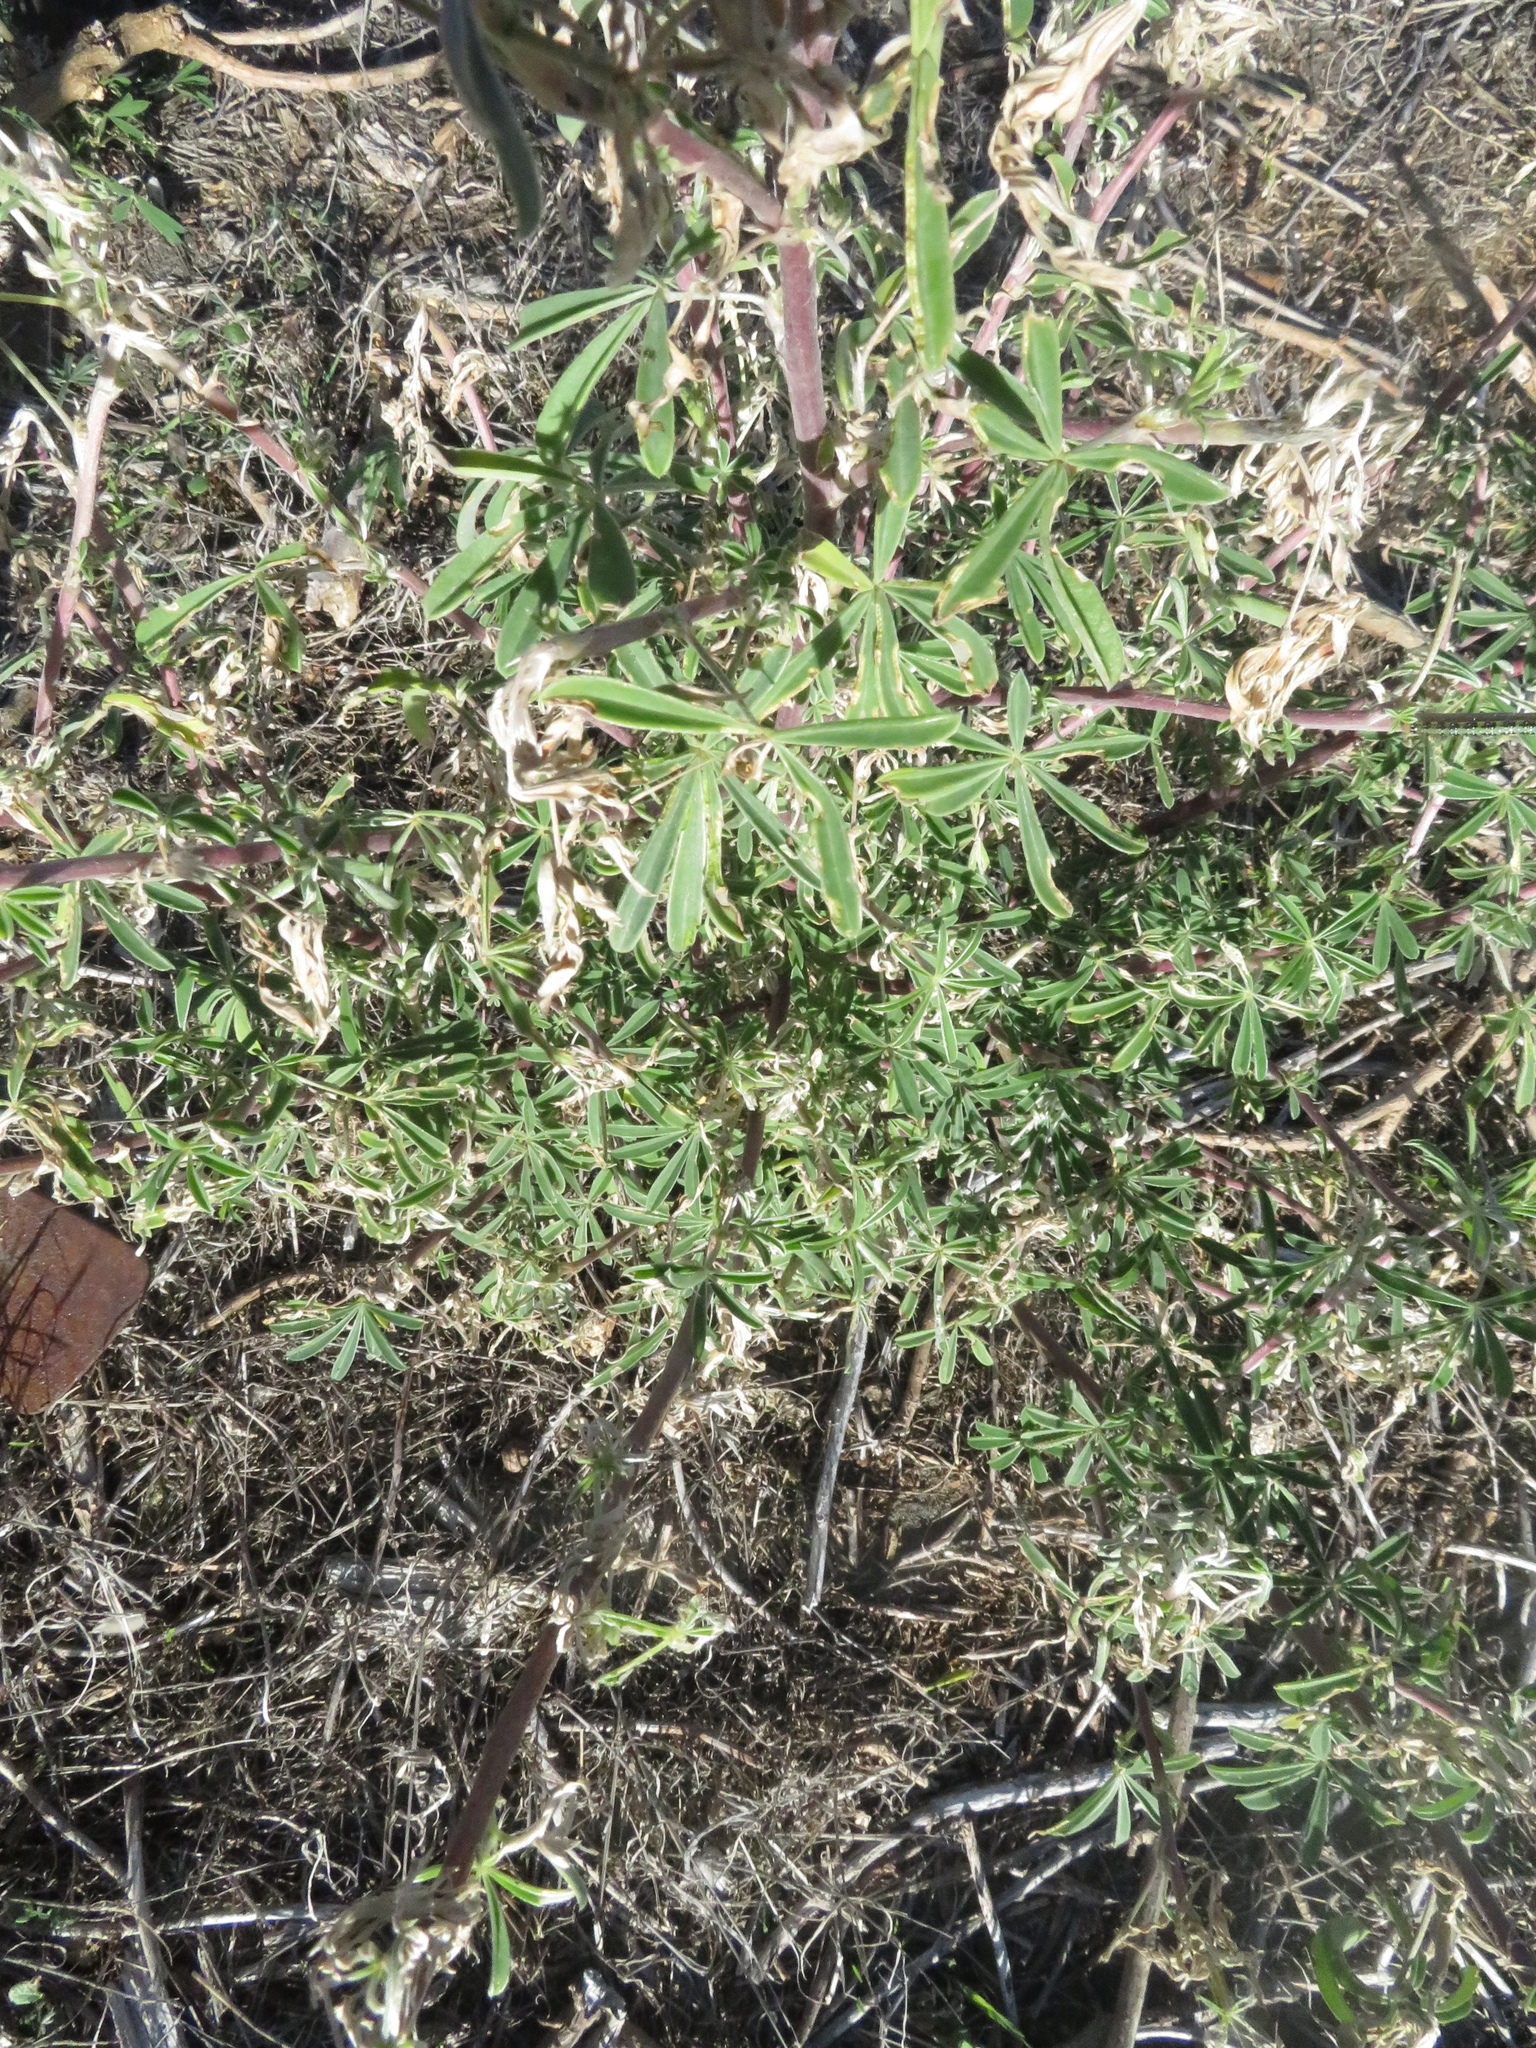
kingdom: Plantae
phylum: Tracheophyta
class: Magnoliopsida
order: Fabales
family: Fabaceae
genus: Lupinus
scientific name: Lupinus arboreus
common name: Yellow bush lupine
